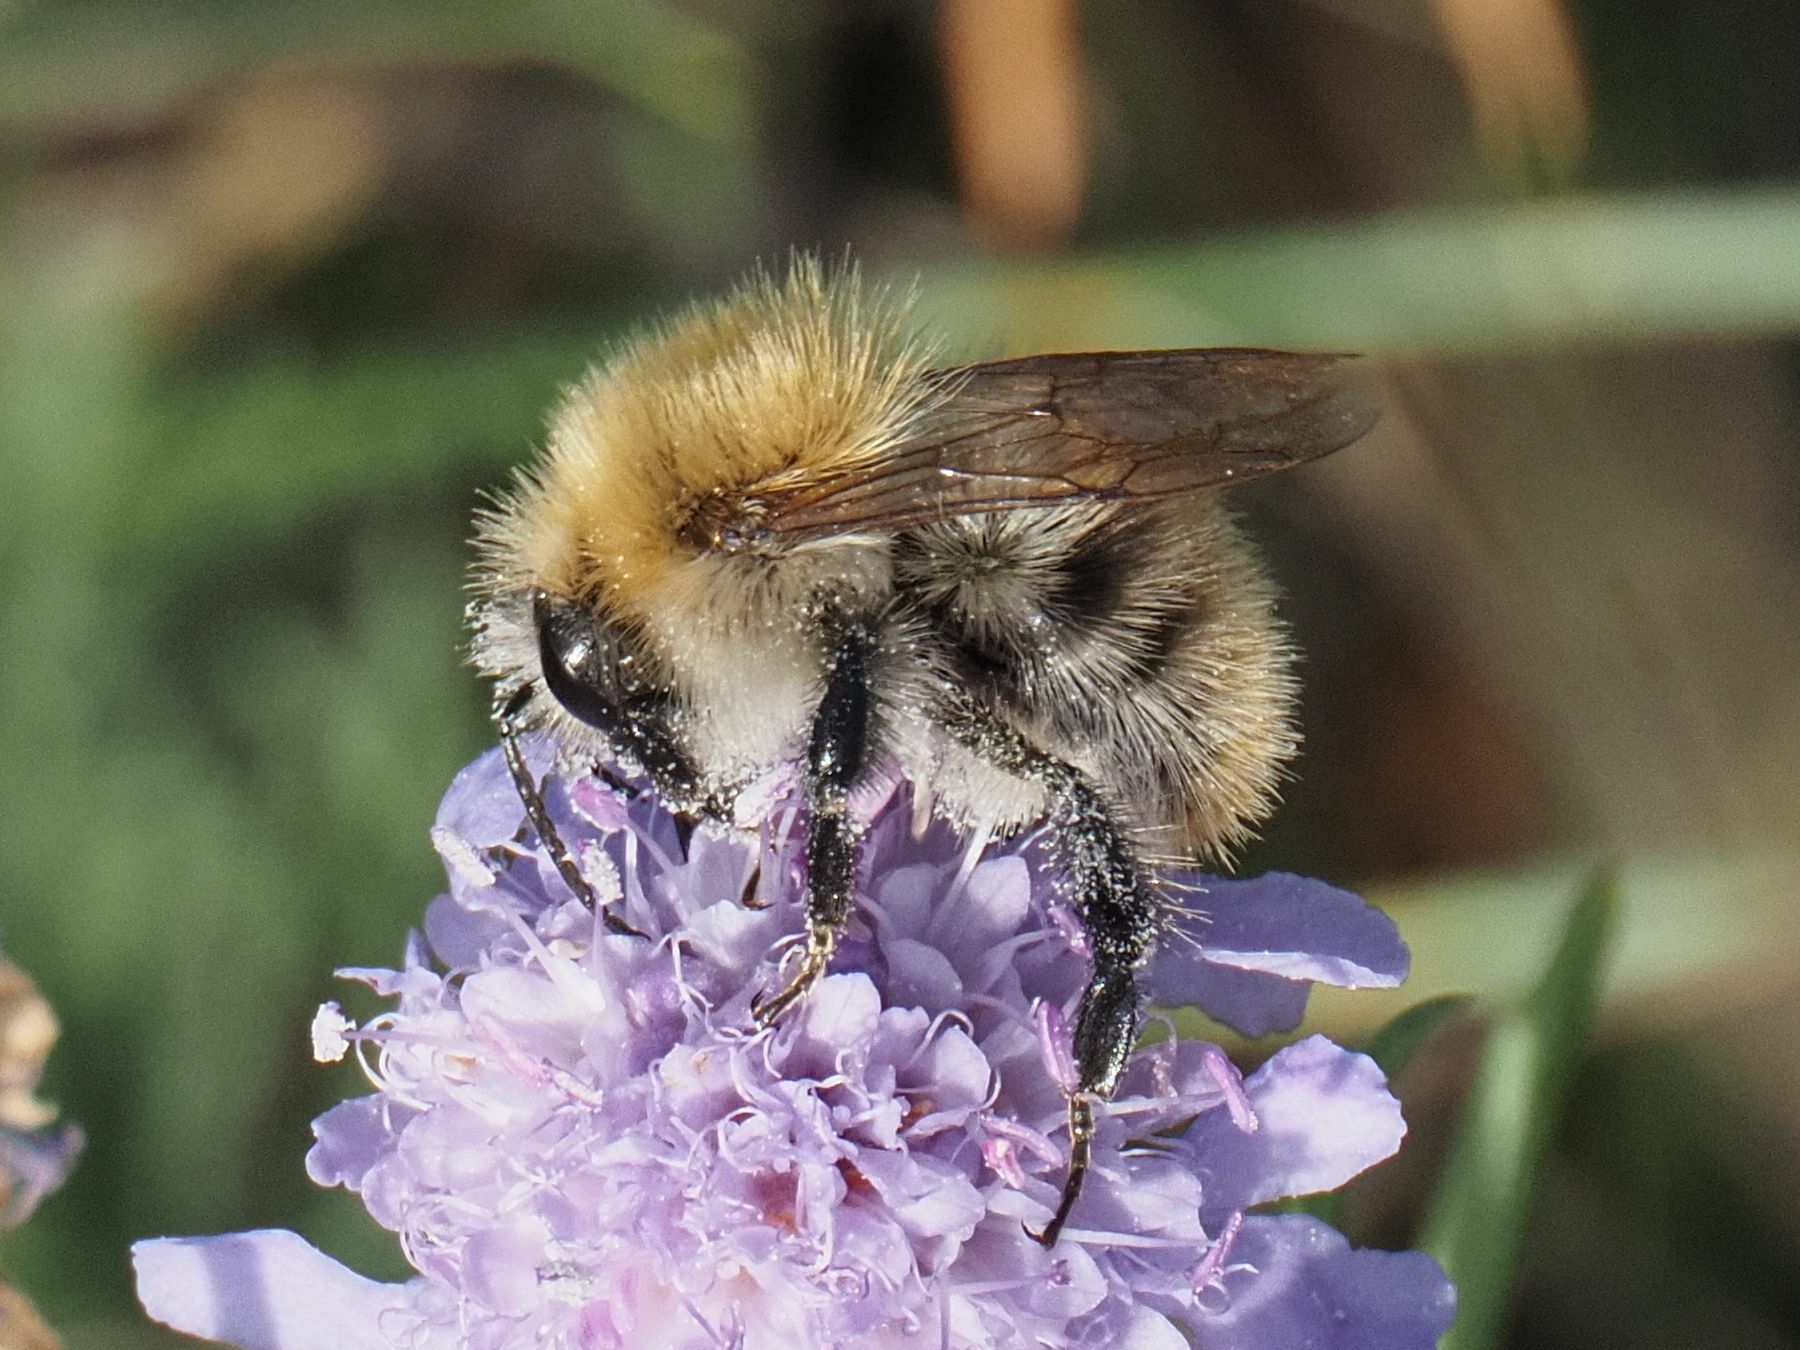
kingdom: Animalia
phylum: Arthropoda
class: Insecta
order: Hymenoptera
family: Apidae
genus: Bombus
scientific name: Bombus pascuorum
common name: Common carder bee
